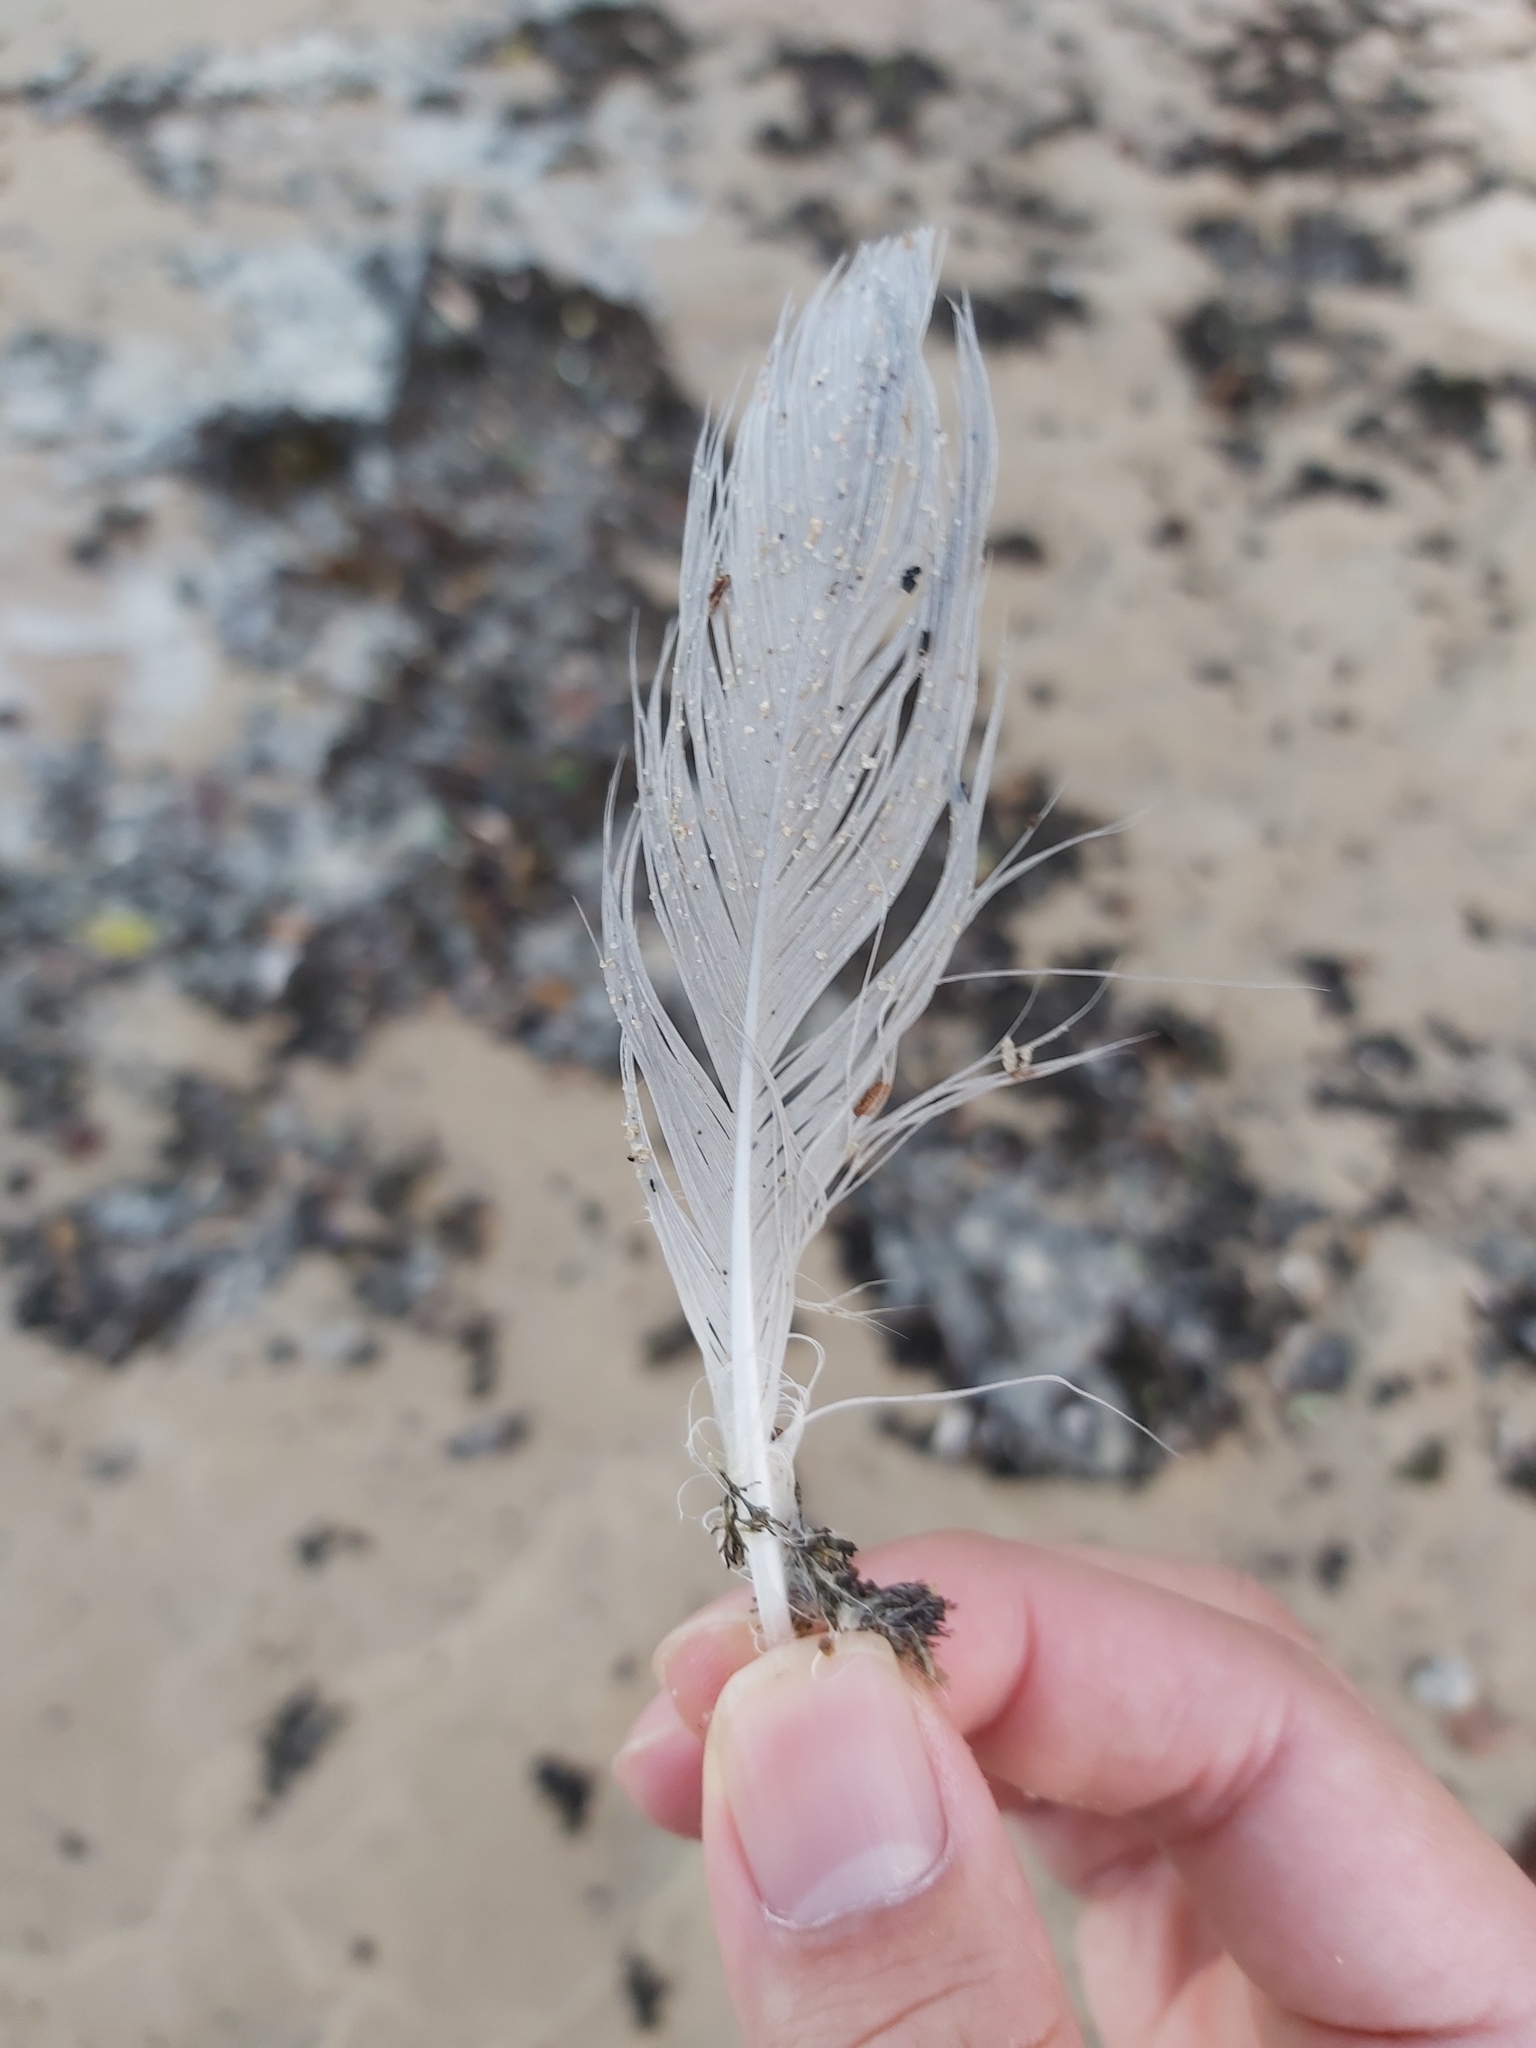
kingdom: Animalia
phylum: Chordata
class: Aves
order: Charadriiformes
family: Laridae
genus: Chroicocephalus
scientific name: Chroicocephalus novaehollandiae
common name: Silver gull
